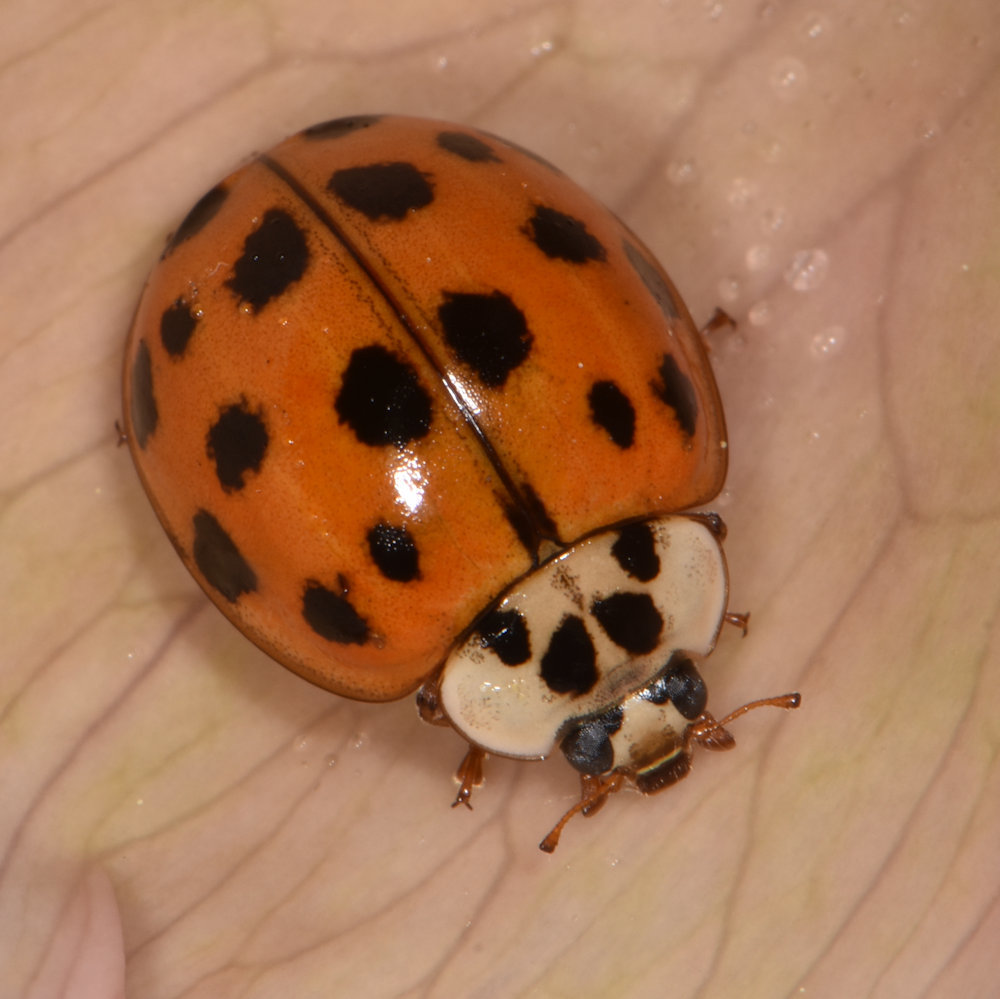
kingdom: Animalia
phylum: Arthropoda
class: Insecta
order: Coleoptera
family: Coccinellidae
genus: Harmonia
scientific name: Harmonia axyridis
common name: Harlequin ladybird
